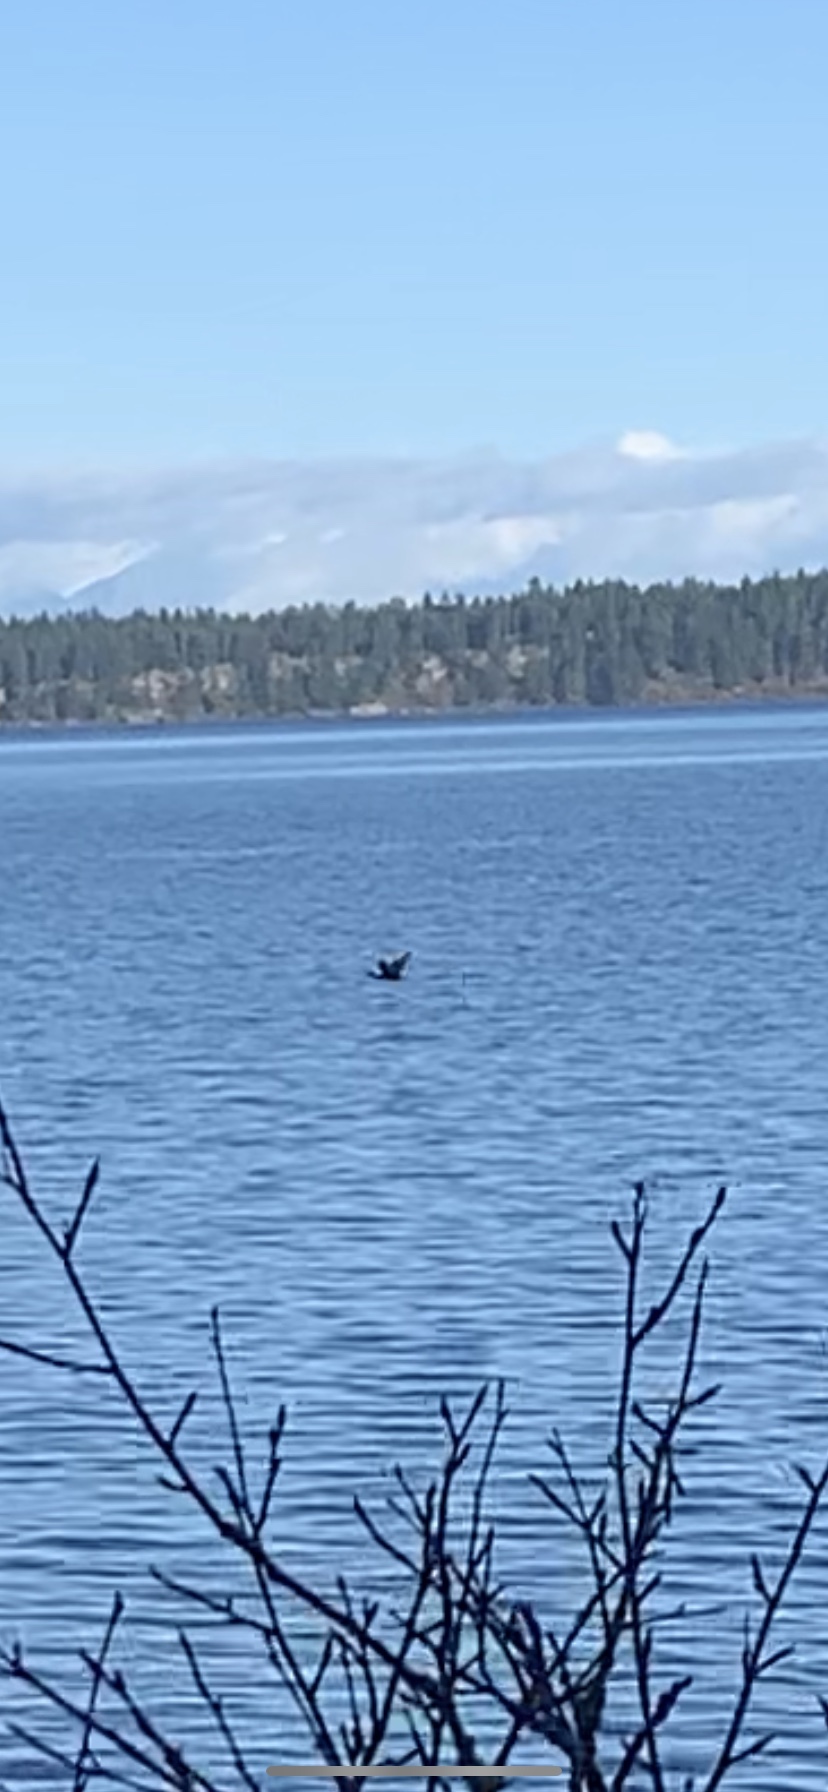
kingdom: Animalia
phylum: Chordata
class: Aves
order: Suliformes
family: Phalacrocoracidae
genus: Phalacrocorax
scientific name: Phalacrocorax auritus
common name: Double-crested cormorant
